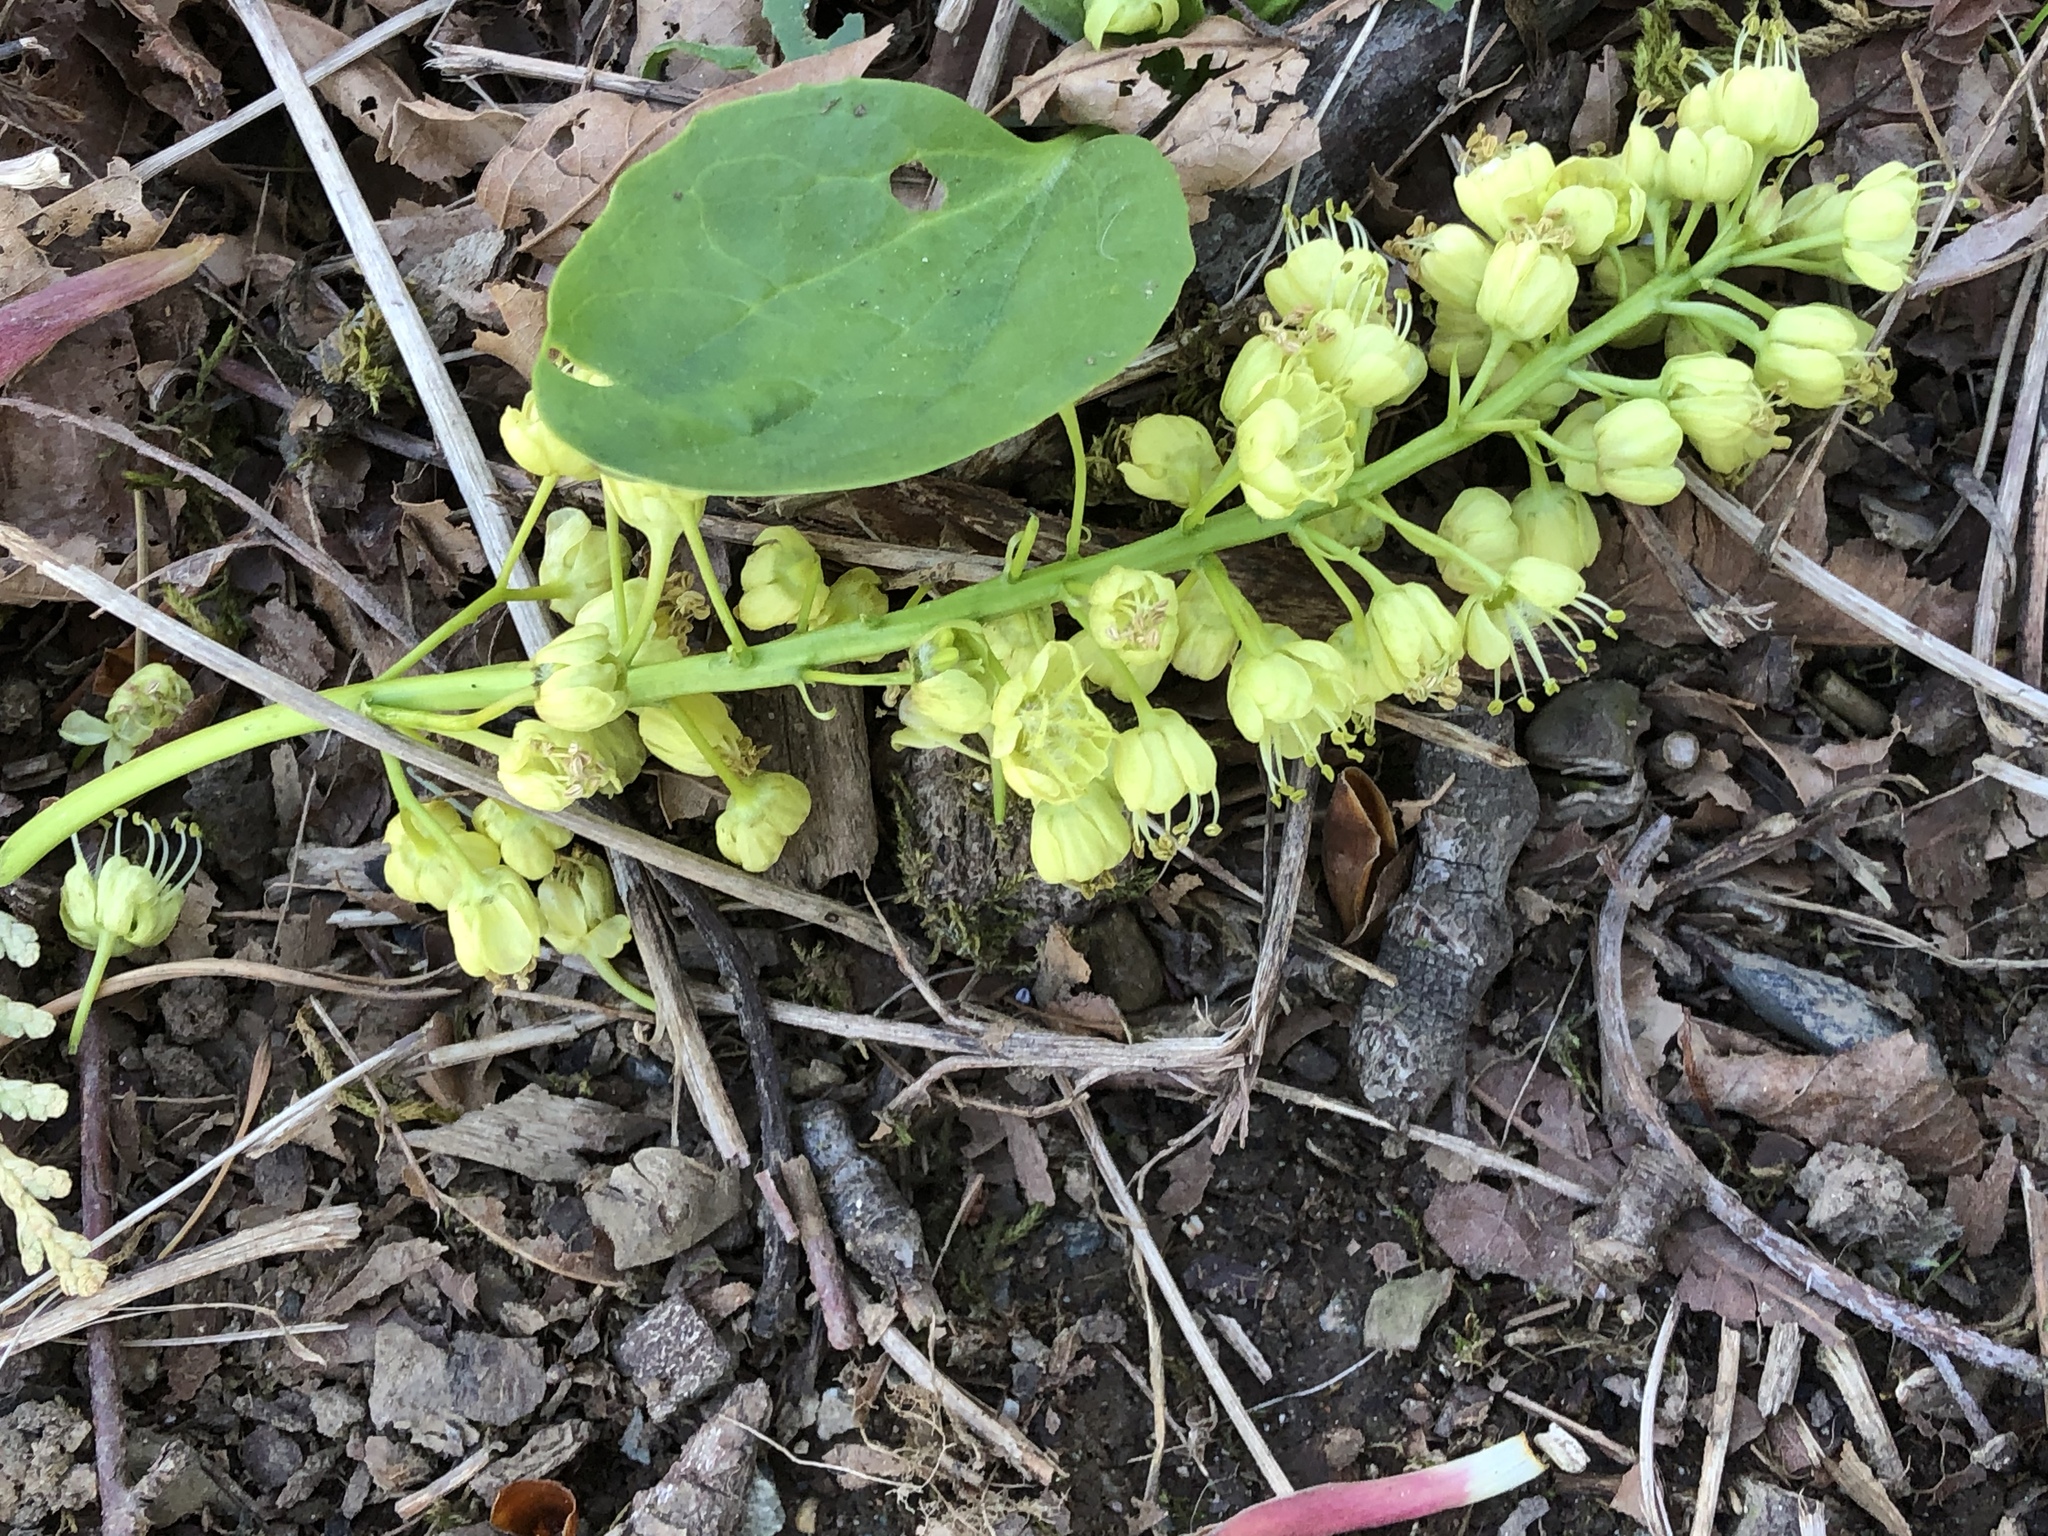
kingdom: Plantae
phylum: Tracheophyta
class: Magnoliopsida
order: Sapindales
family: Sapindaceae
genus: Acer
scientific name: Acer macrophyllum
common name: Oregon maple
